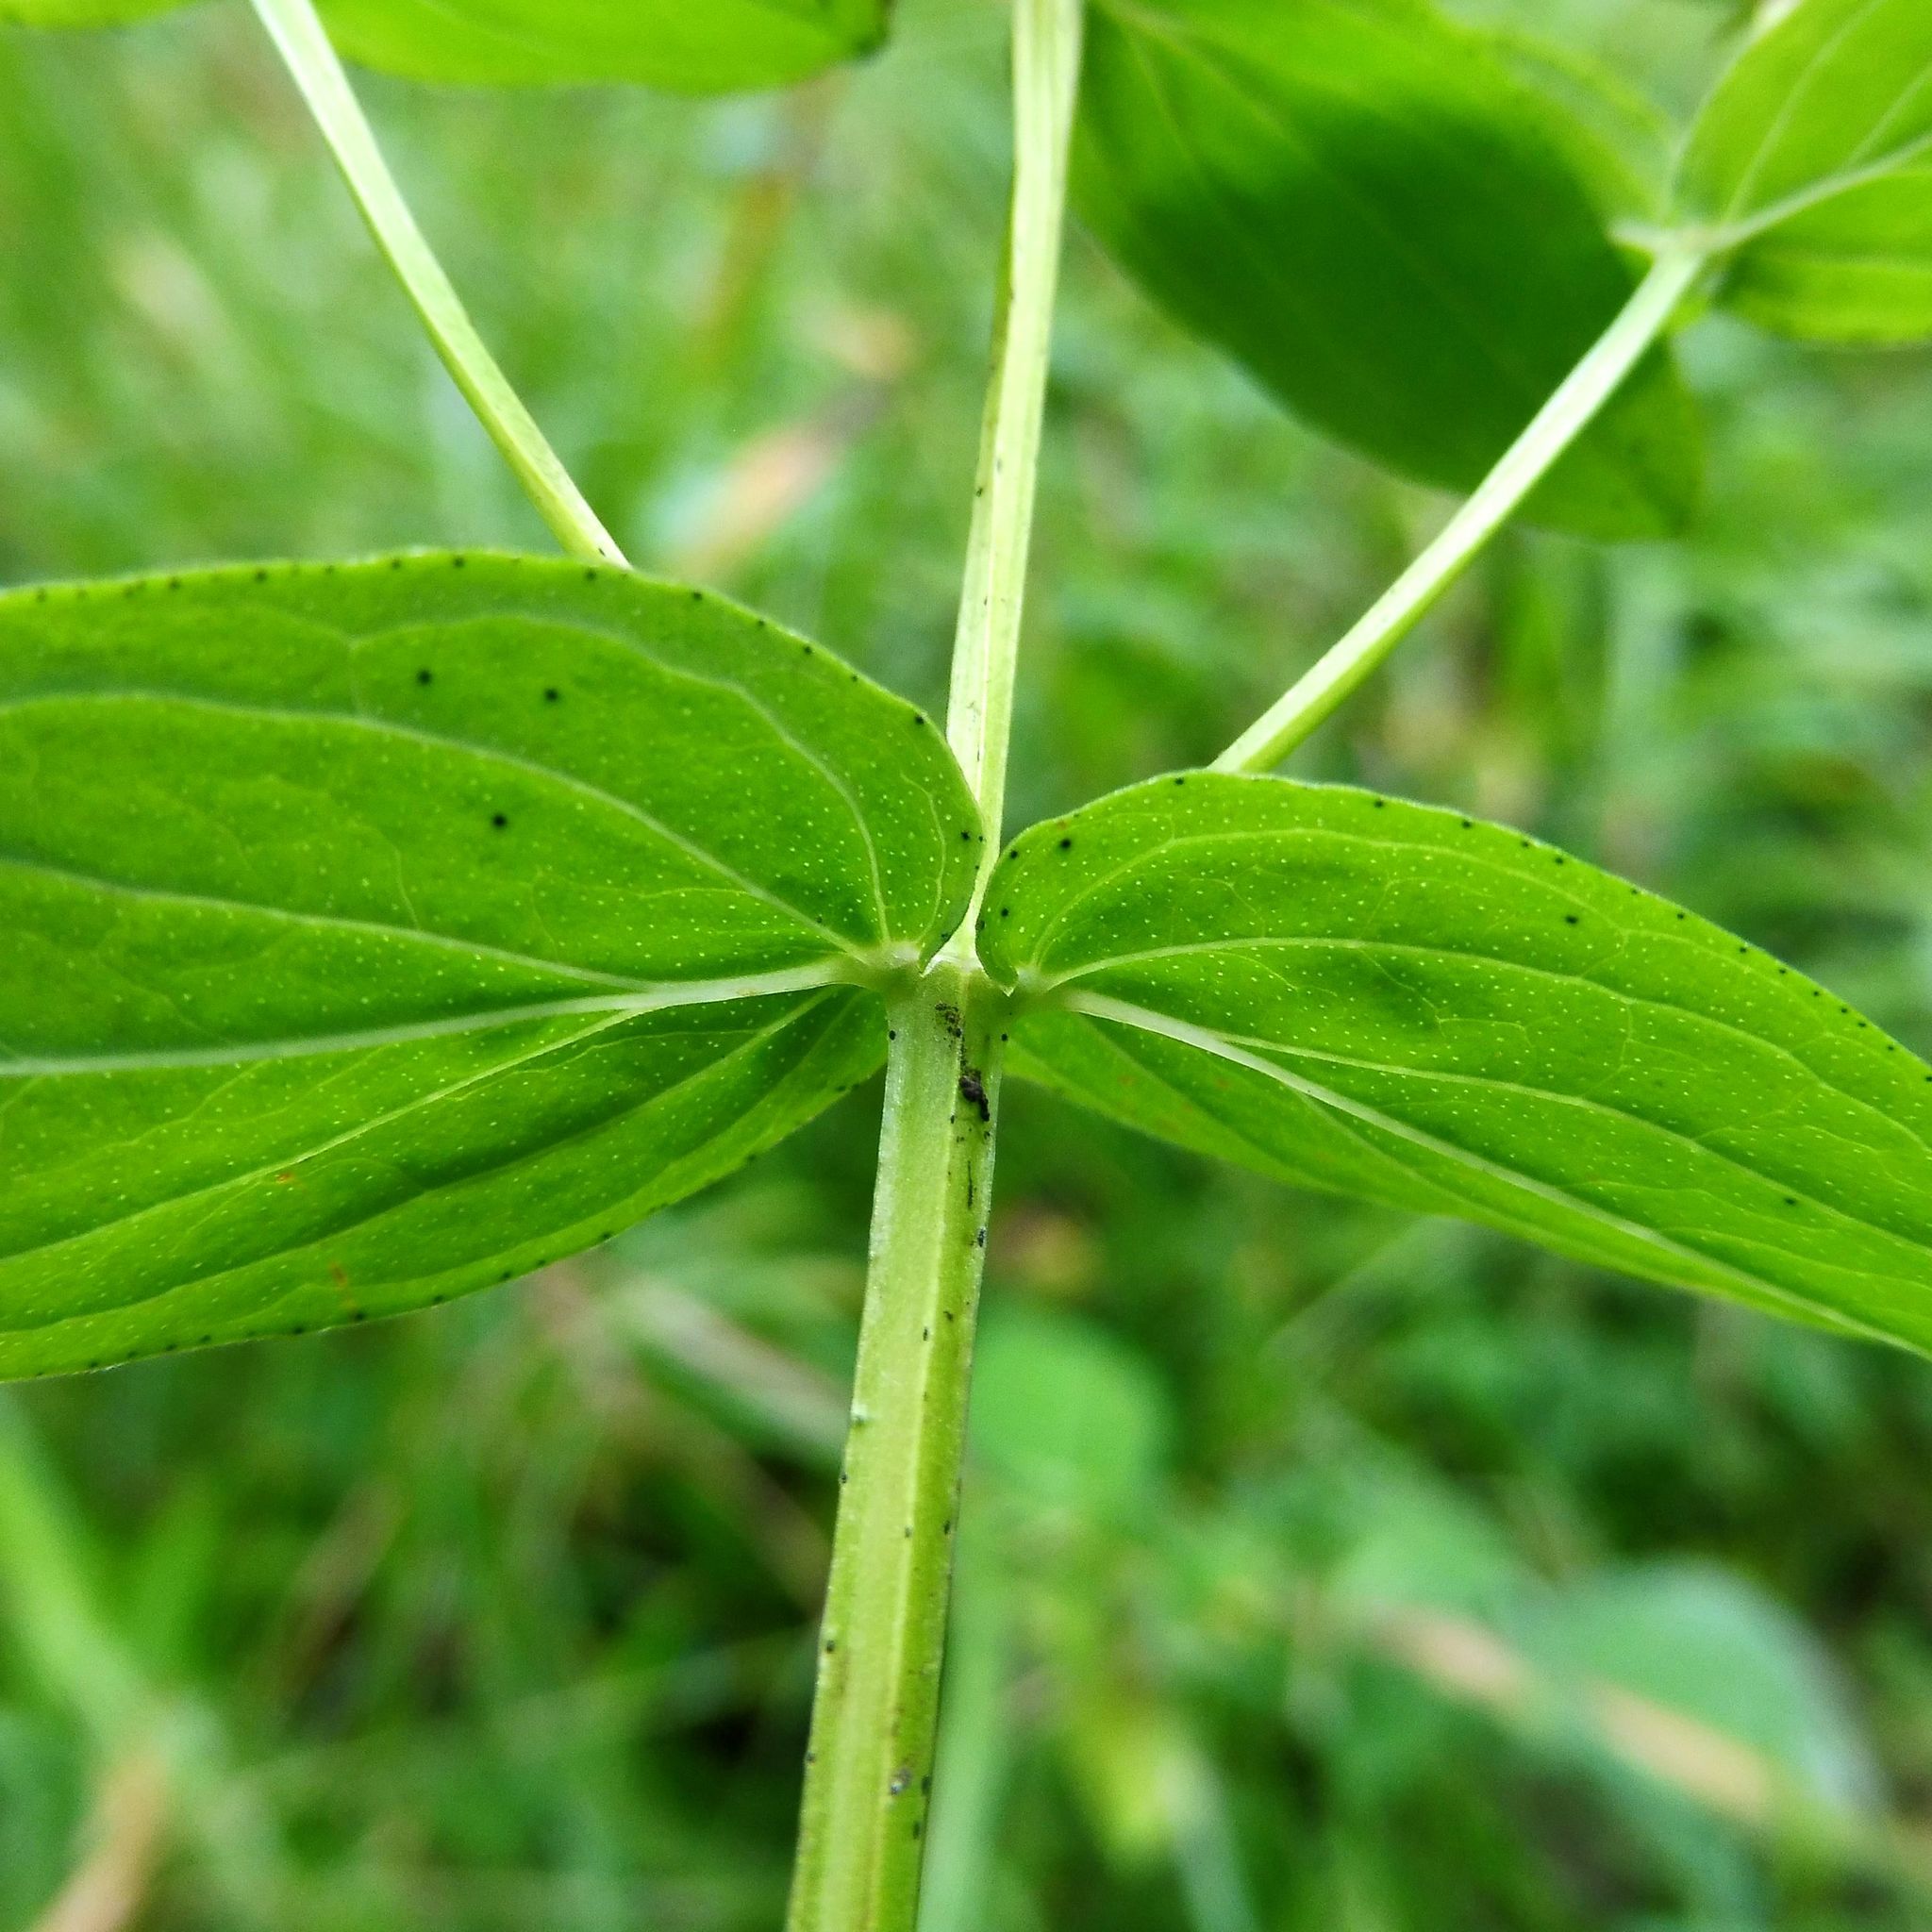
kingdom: Plantae
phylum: Tracheophyta
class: Magnoliopsida
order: Malpighiales
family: Hypericaceae
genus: Hypericum
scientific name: Hypericum tetrapterum
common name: Square-stalked st. john's-wort
